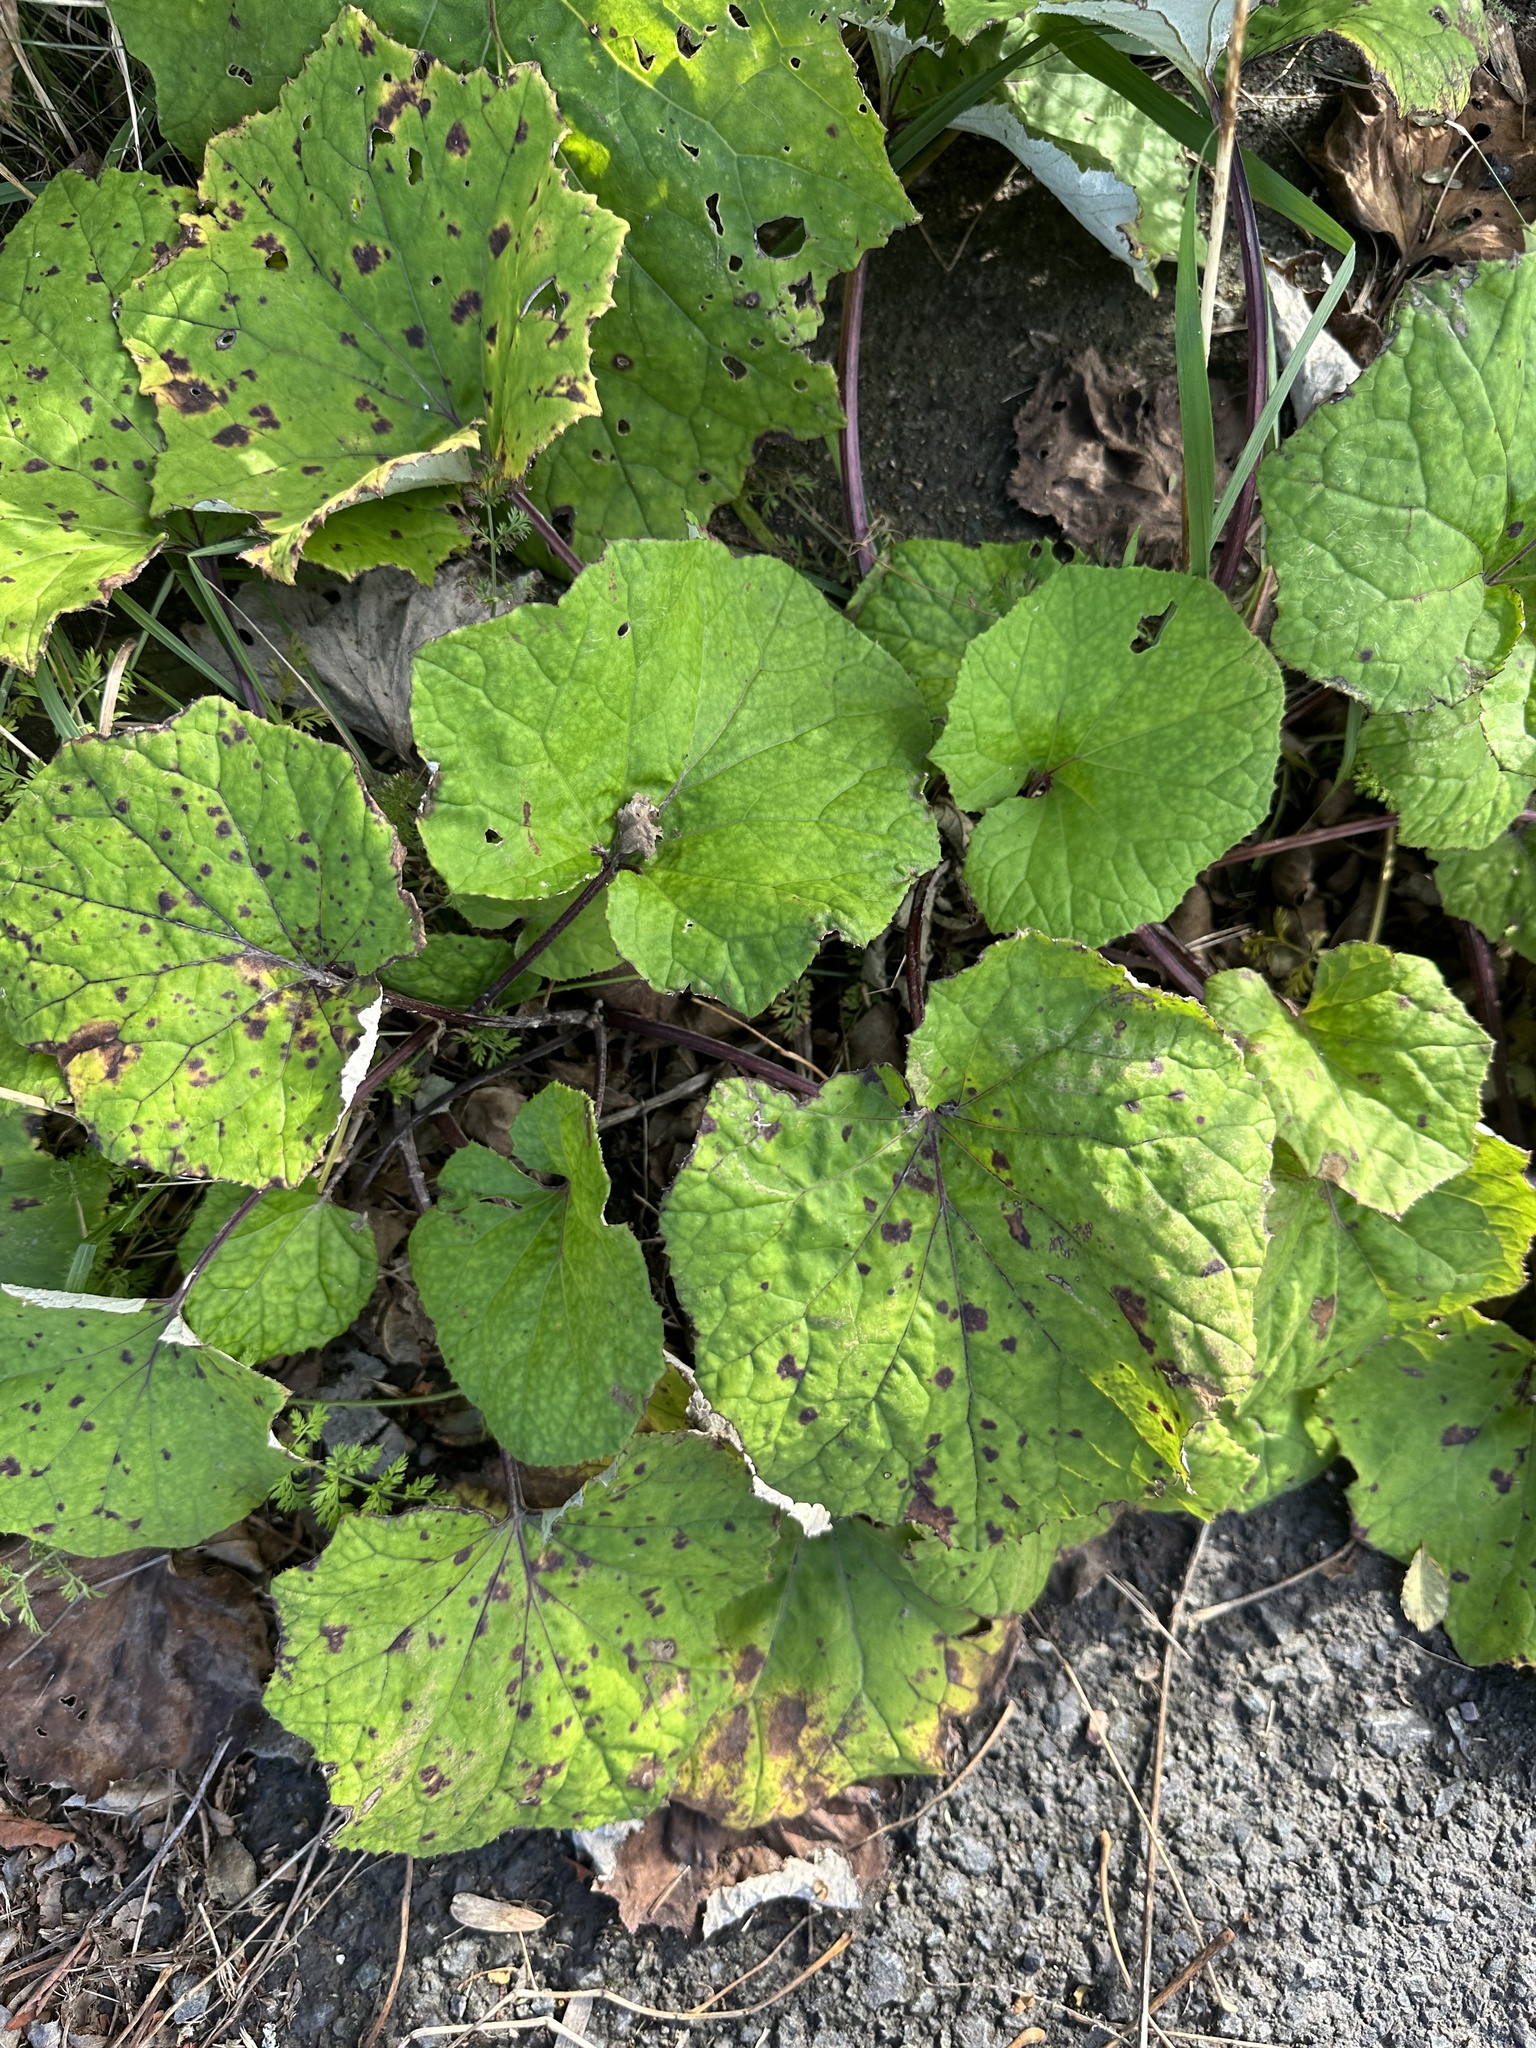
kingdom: Plantae
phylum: Tracheophyta
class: Magnoliopsida
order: Asterales
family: Asteraceae
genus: Tussilago
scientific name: Tussilago farfara
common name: Coltsfoot
